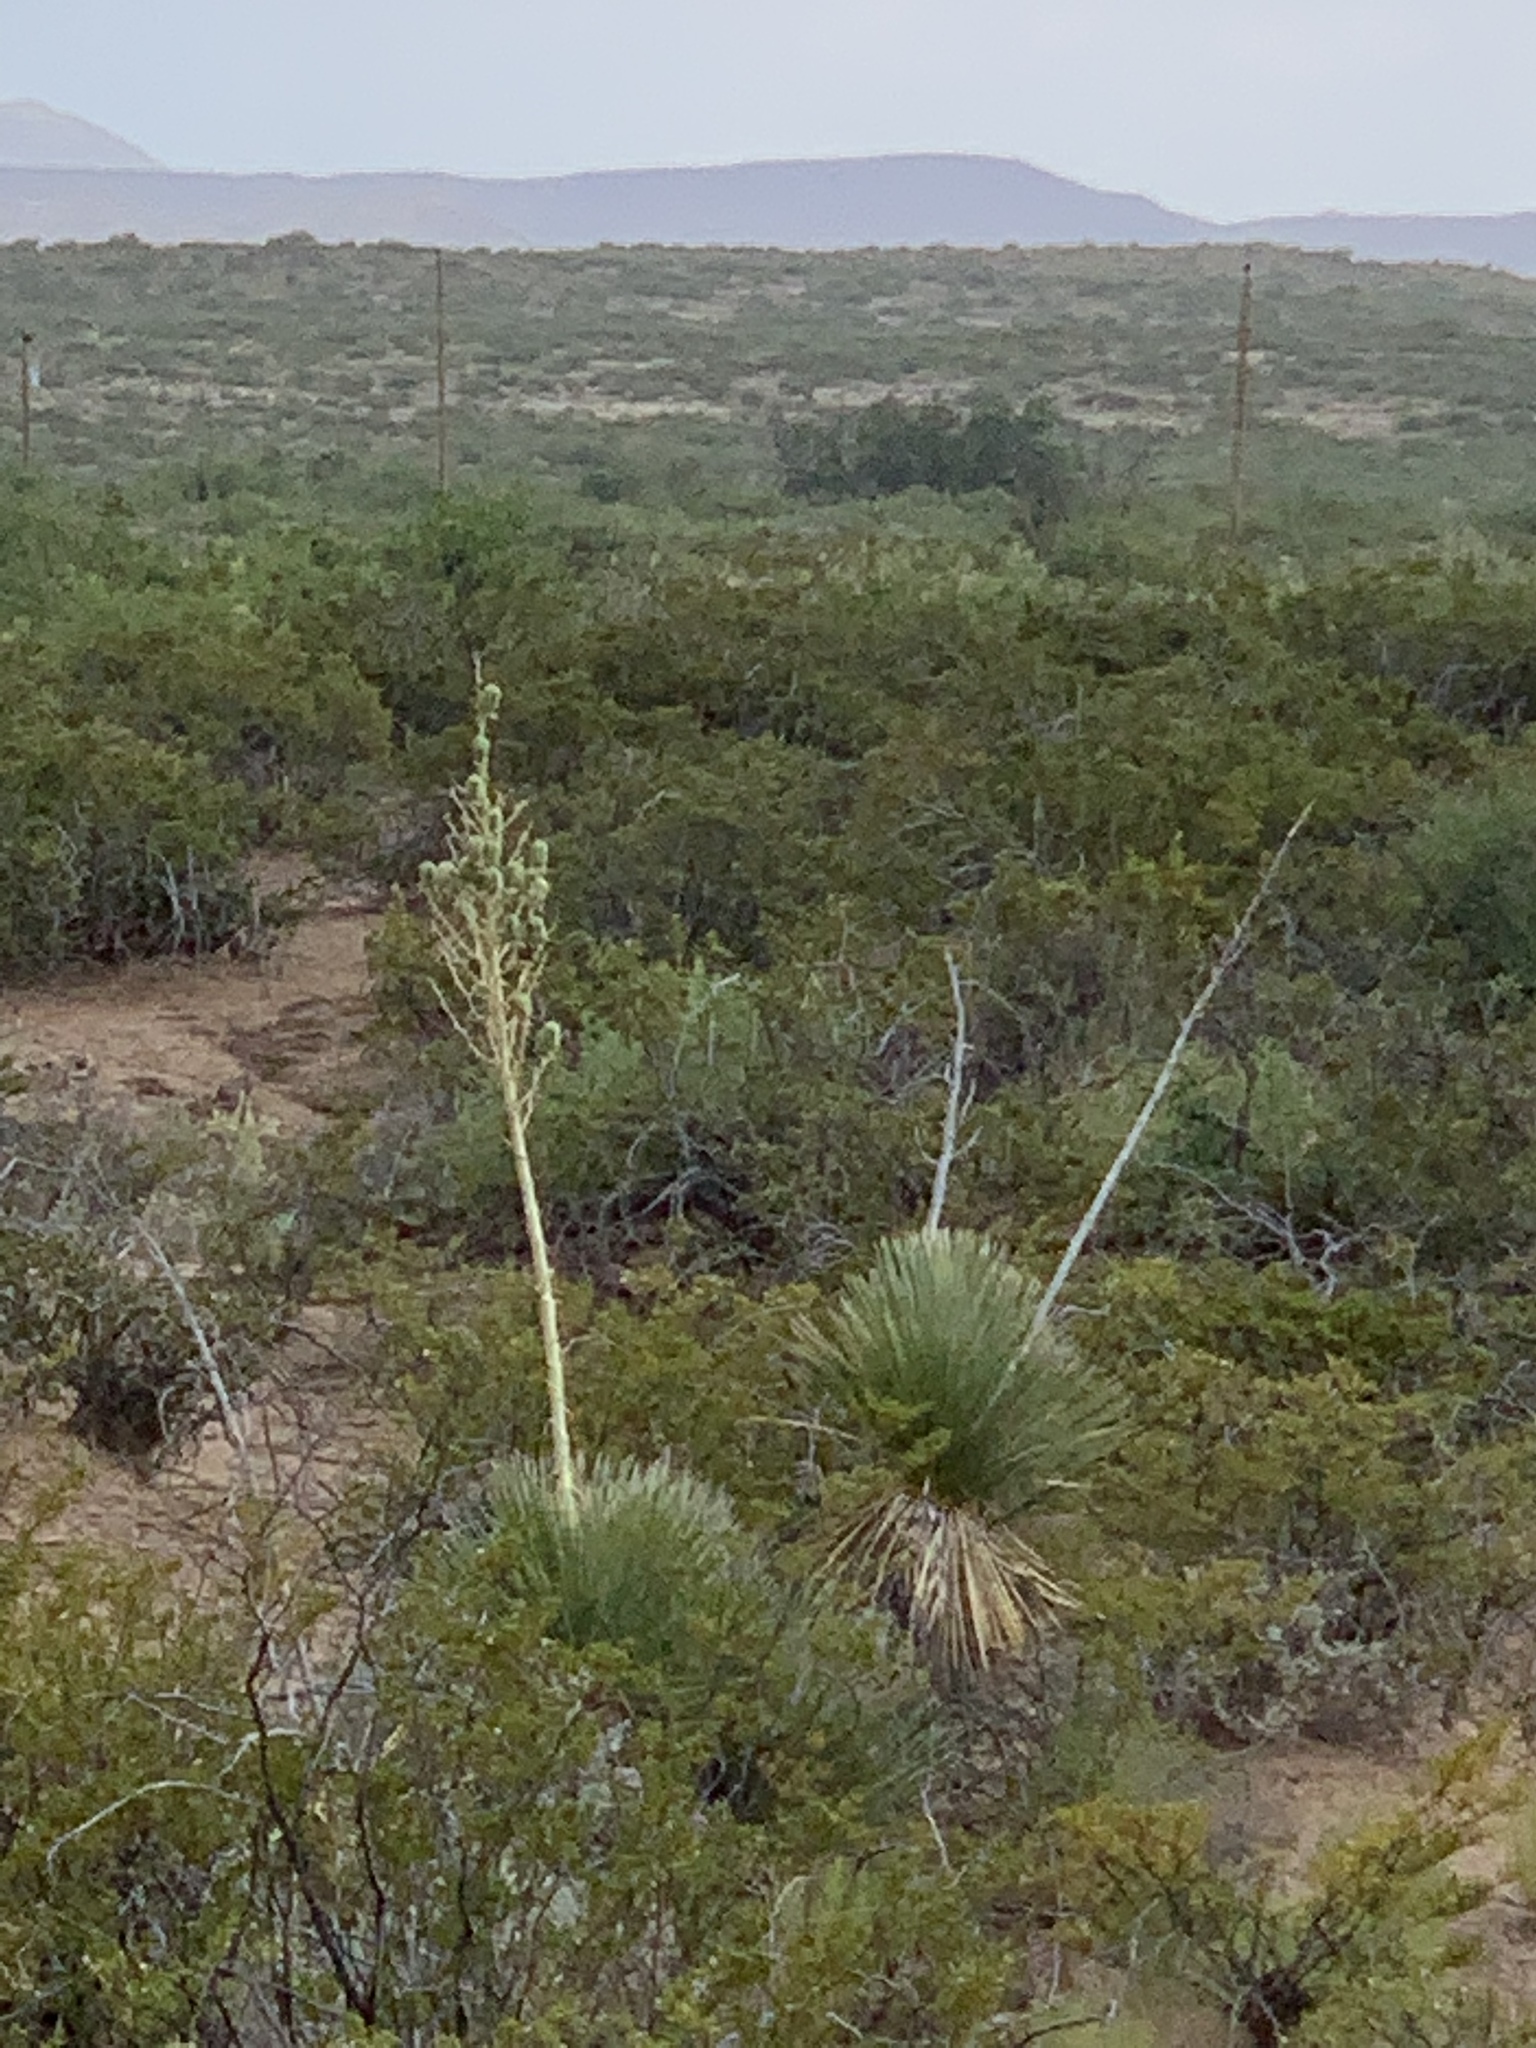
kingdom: Plantae
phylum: Tracheophyta
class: Liliopsida
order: Asparagales
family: Asparagaceae
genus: Yucca
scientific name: Yucca elata
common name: Palmella
